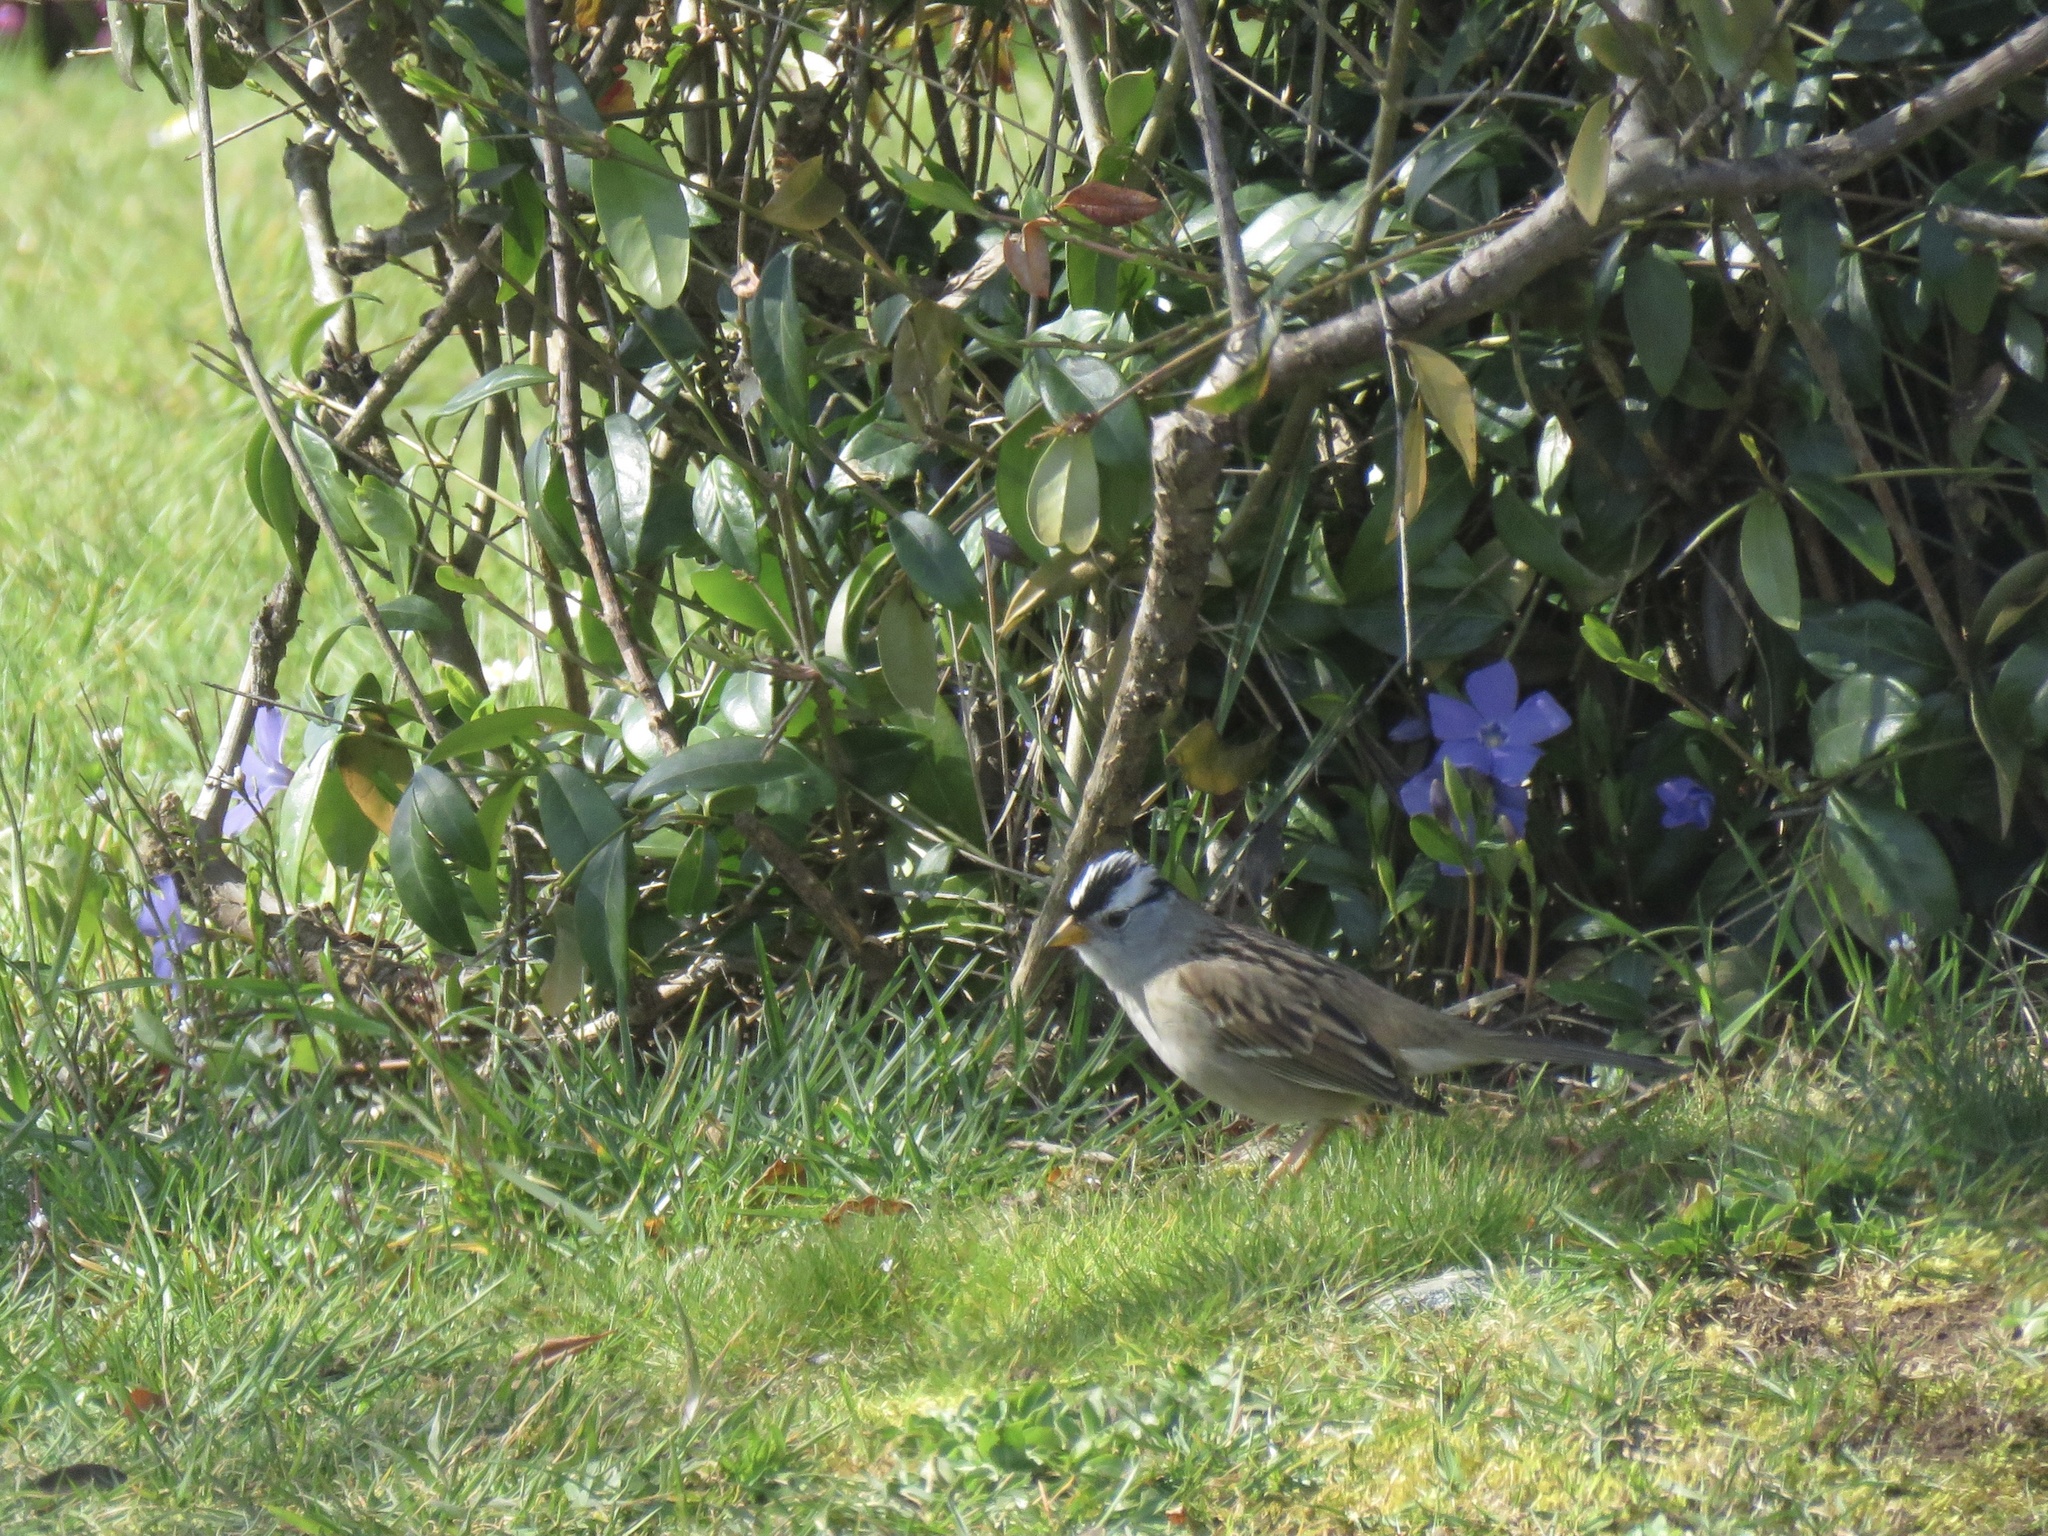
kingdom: Animalia
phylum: Chordata
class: Aves
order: Passeriformes
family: Passerellidae
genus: Zonotrichia
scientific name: Zonotrichia leucophrys
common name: White-crowned sparrow
